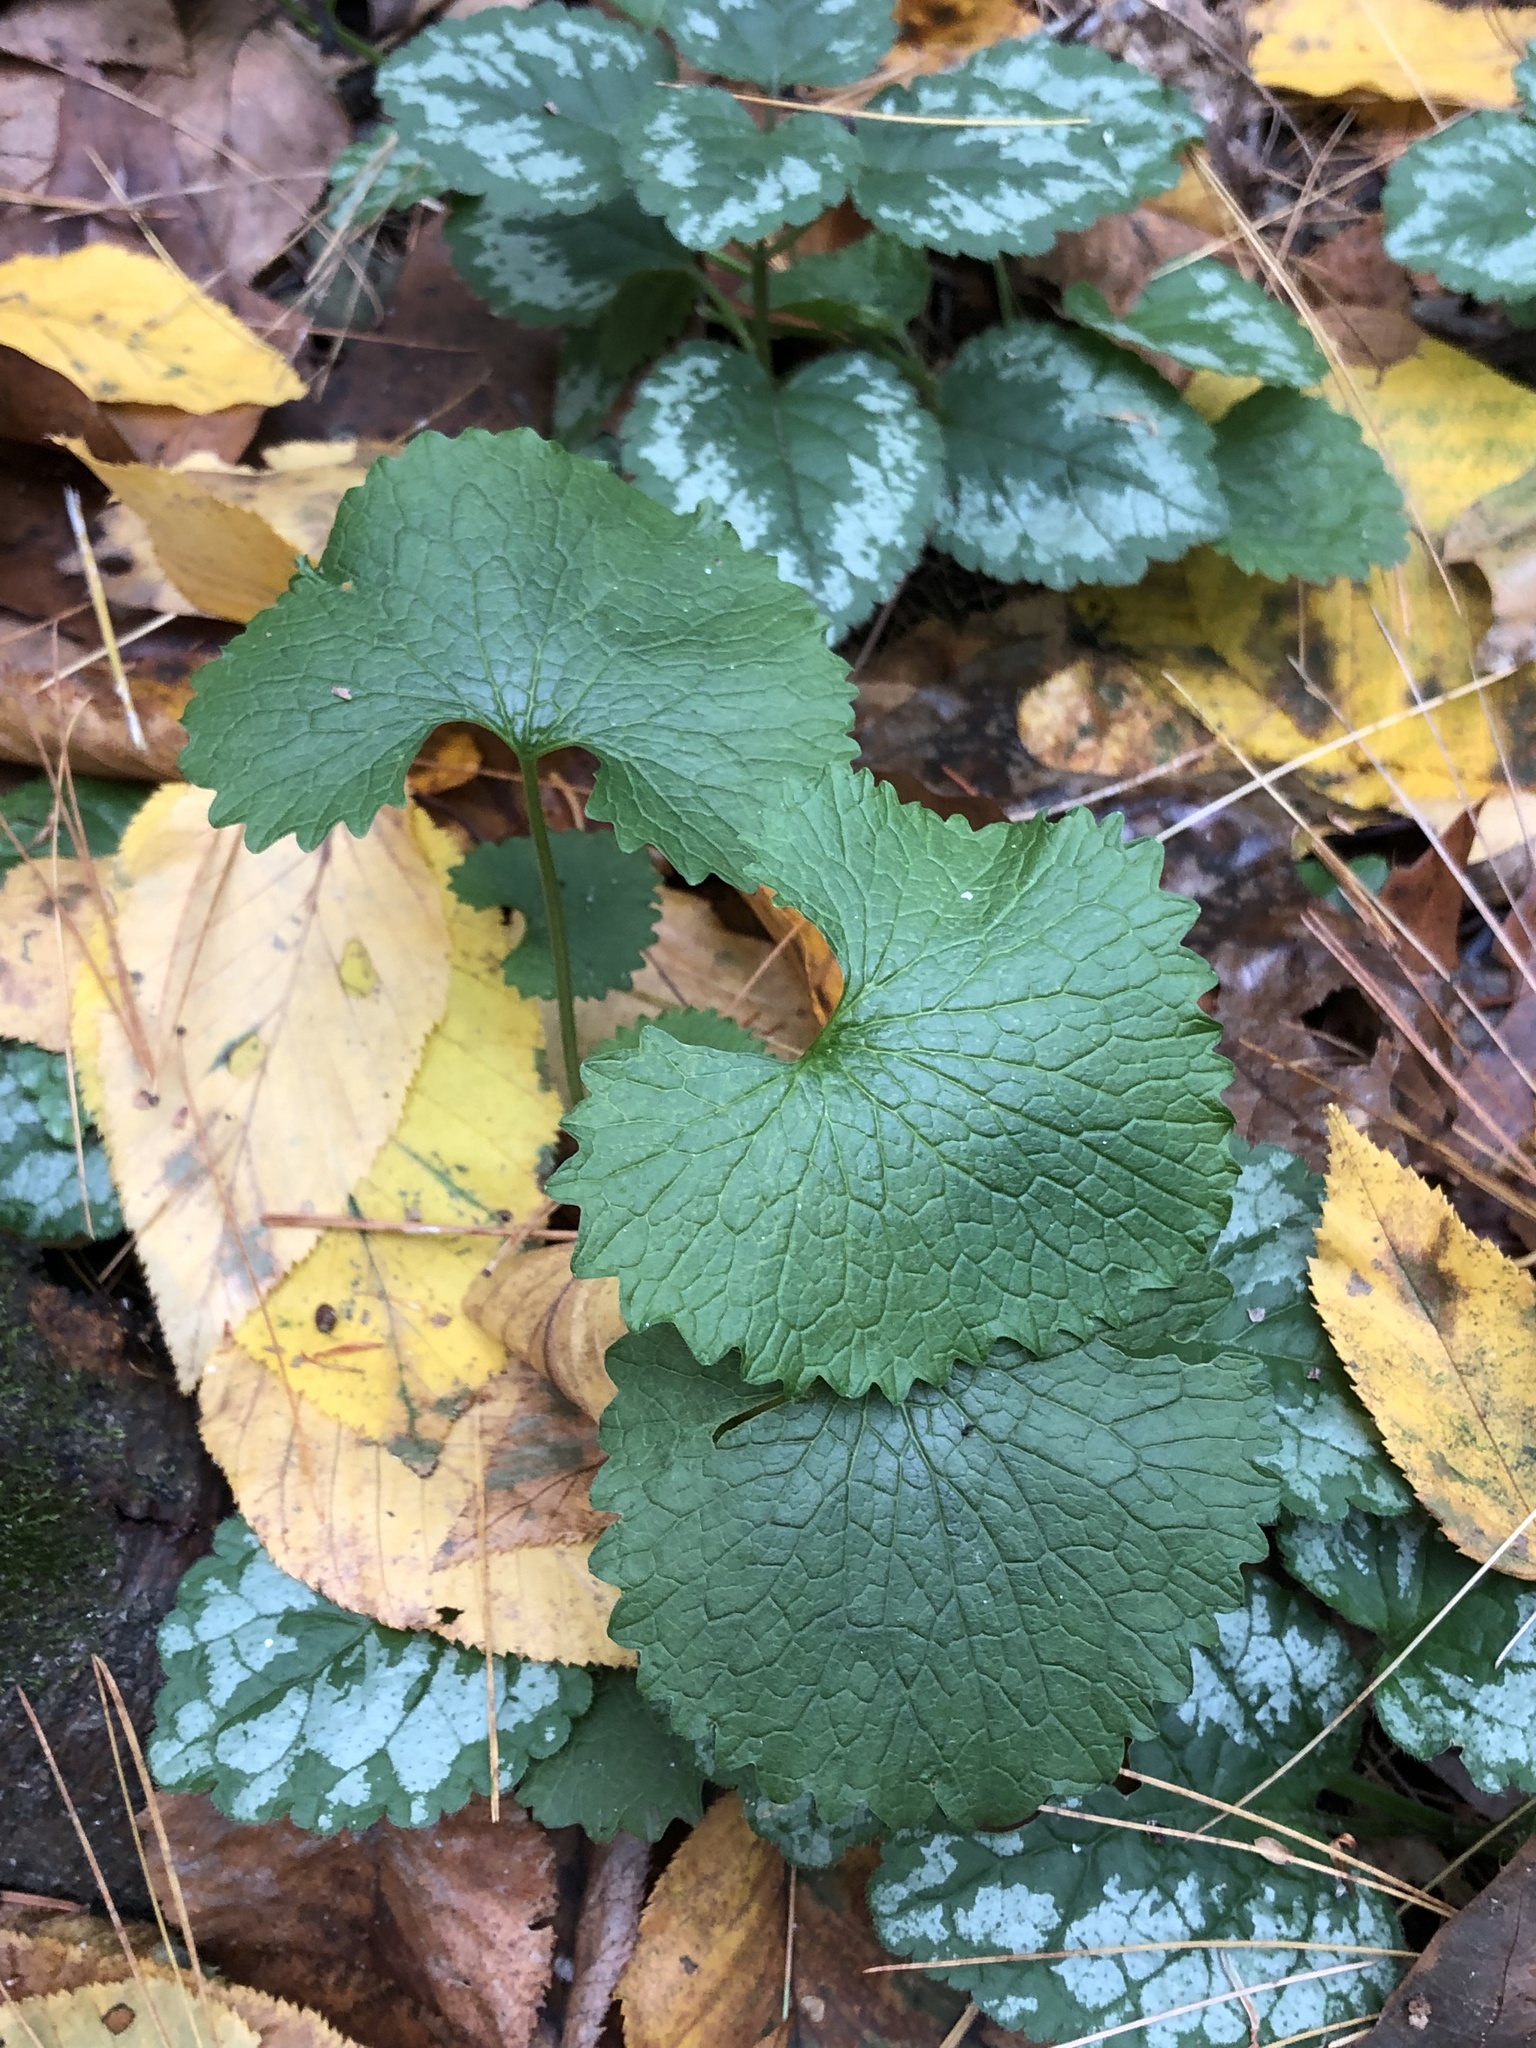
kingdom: Plantae
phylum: Tracheophyta
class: Magnoliopsida
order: Brassicales
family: Brassicaceae
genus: Alliaria
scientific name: Alliaria petiolata
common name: Garlic mustard
